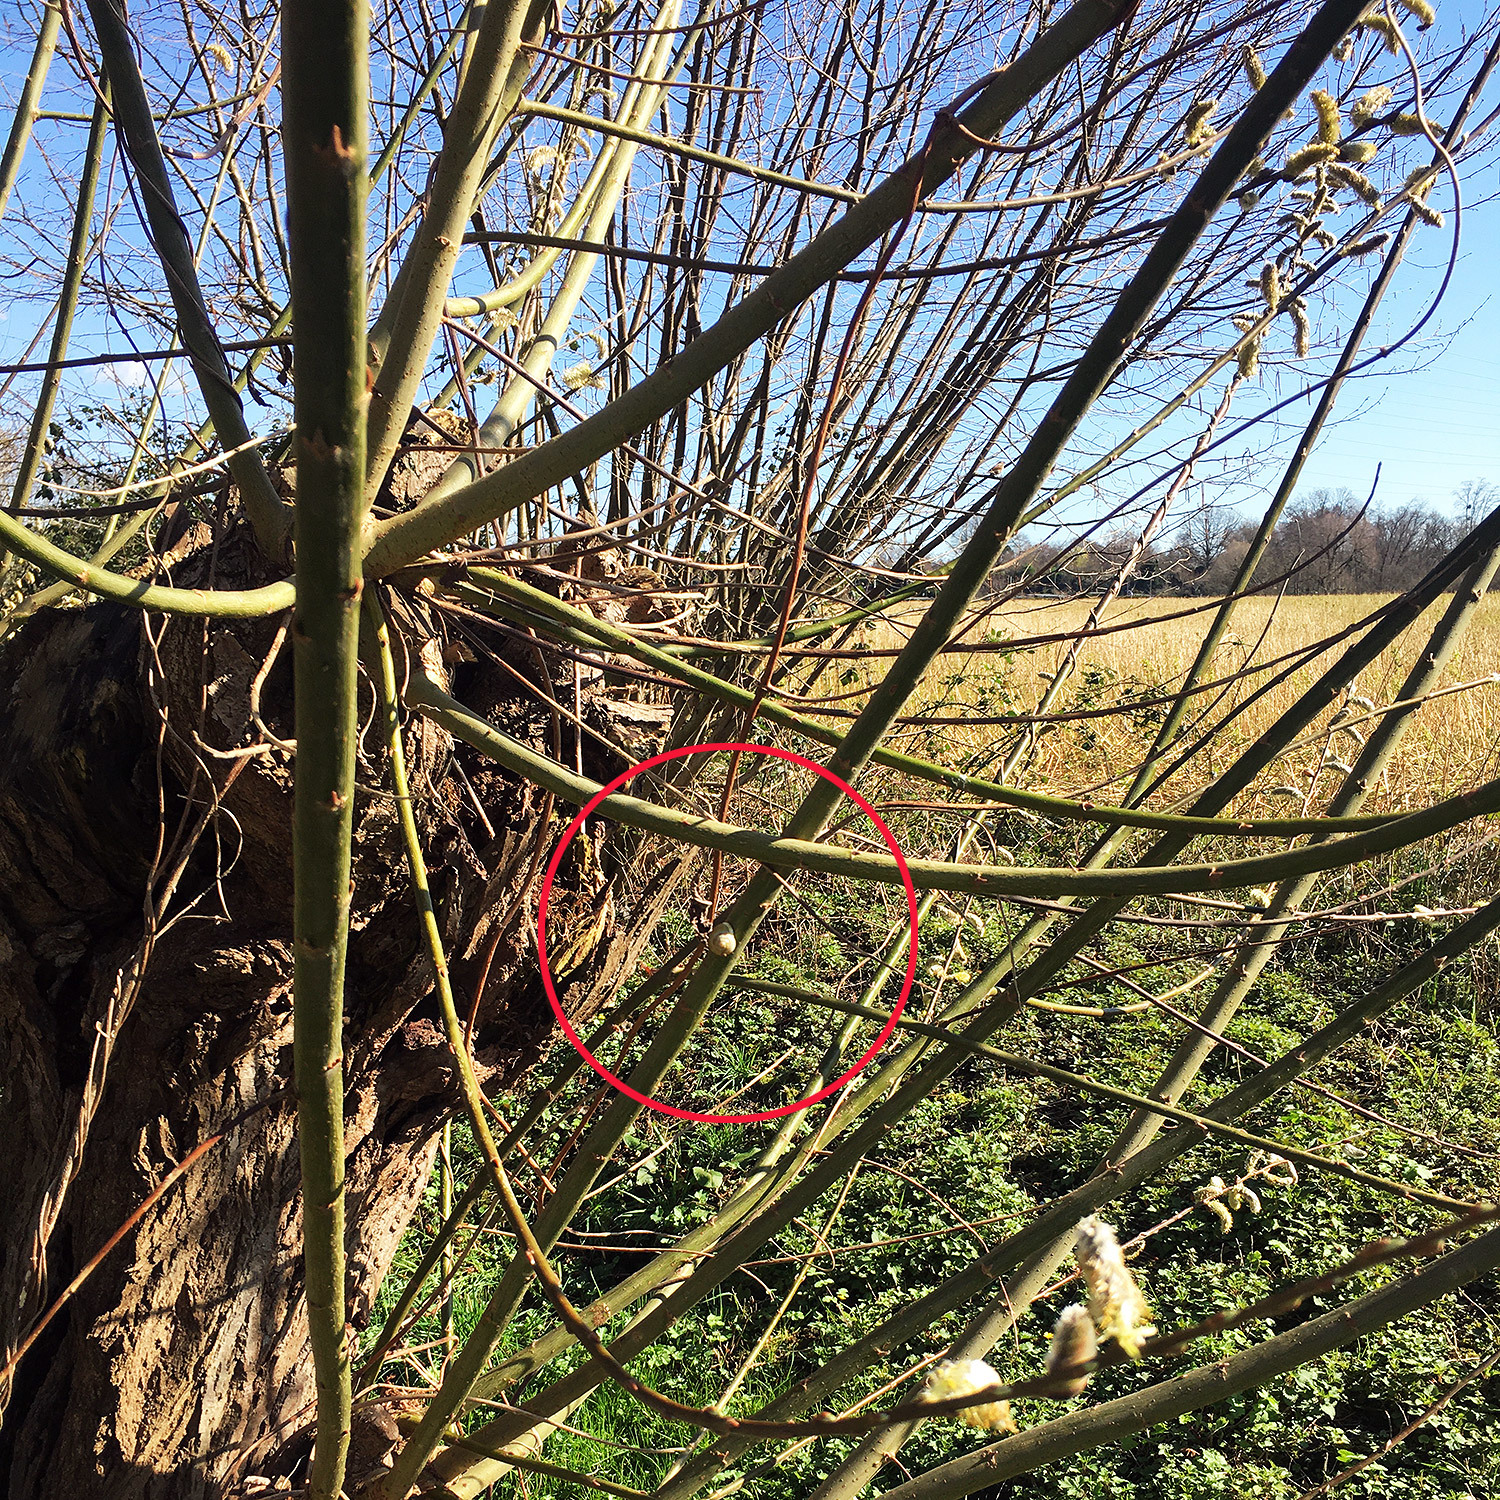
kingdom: Animalia
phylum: Mollusca
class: Gastropoda
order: Stylommatophora
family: Helicidae
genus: Cepaea
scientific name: Cepaea hortensis
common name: White-lip gardensnail
